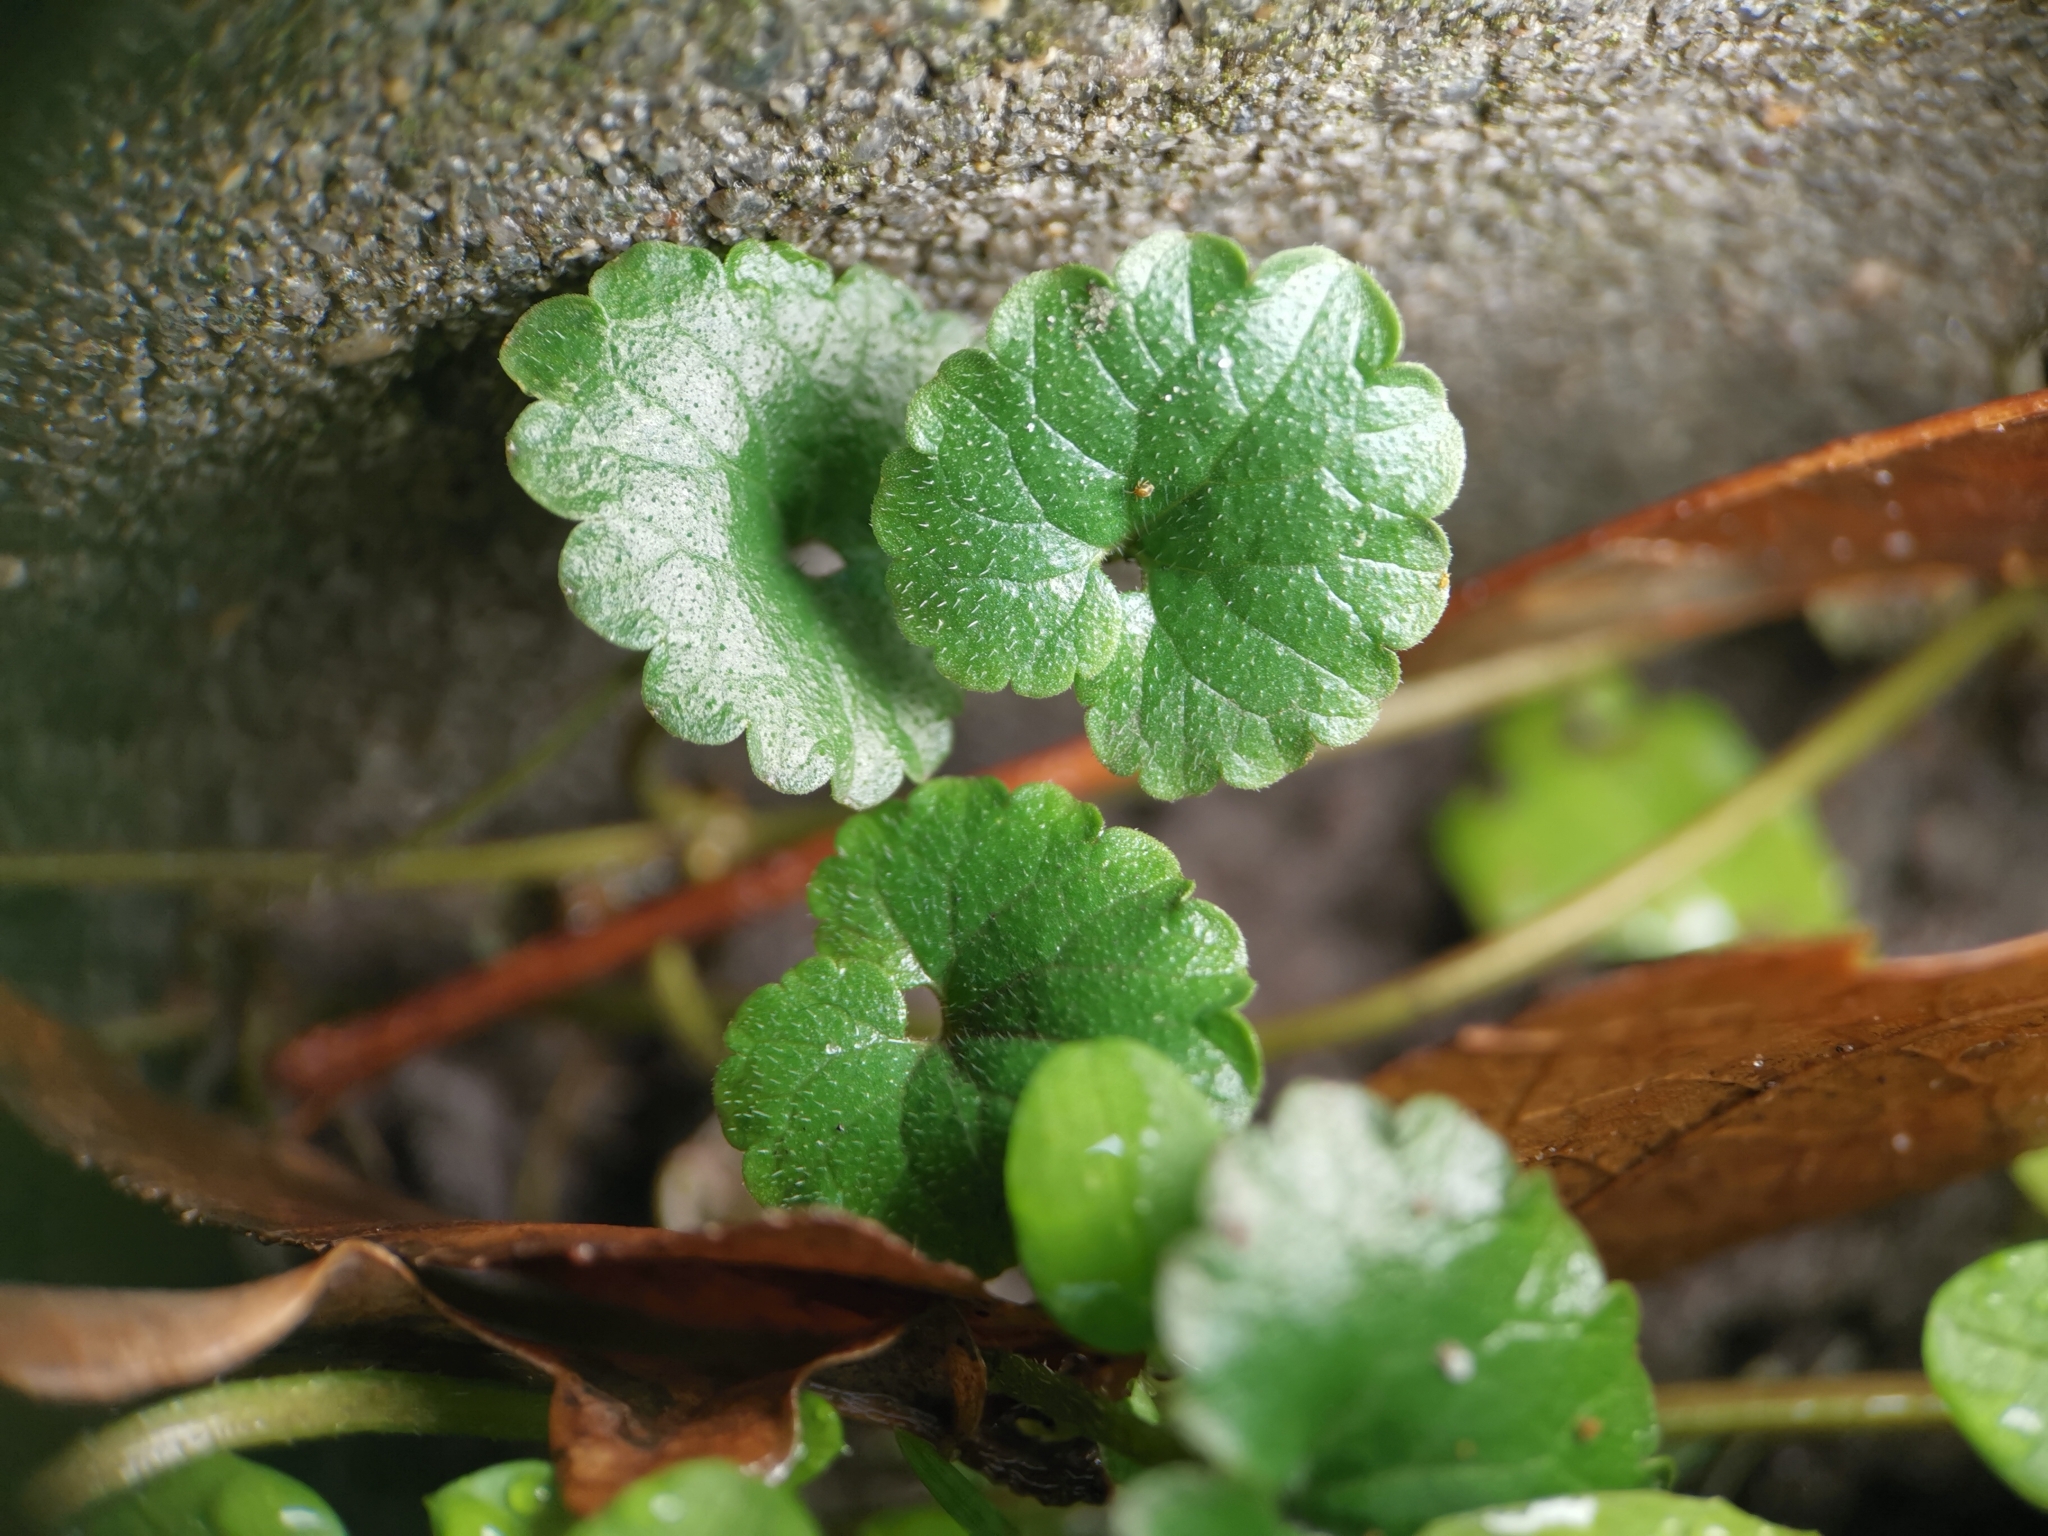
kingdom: Plantae
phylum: Tracheophyta
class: Magnoliopsida
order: Lamiales
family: Lamiaceae
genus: Glechoma
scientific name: Glechoma hederacea
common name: Ground ivy
